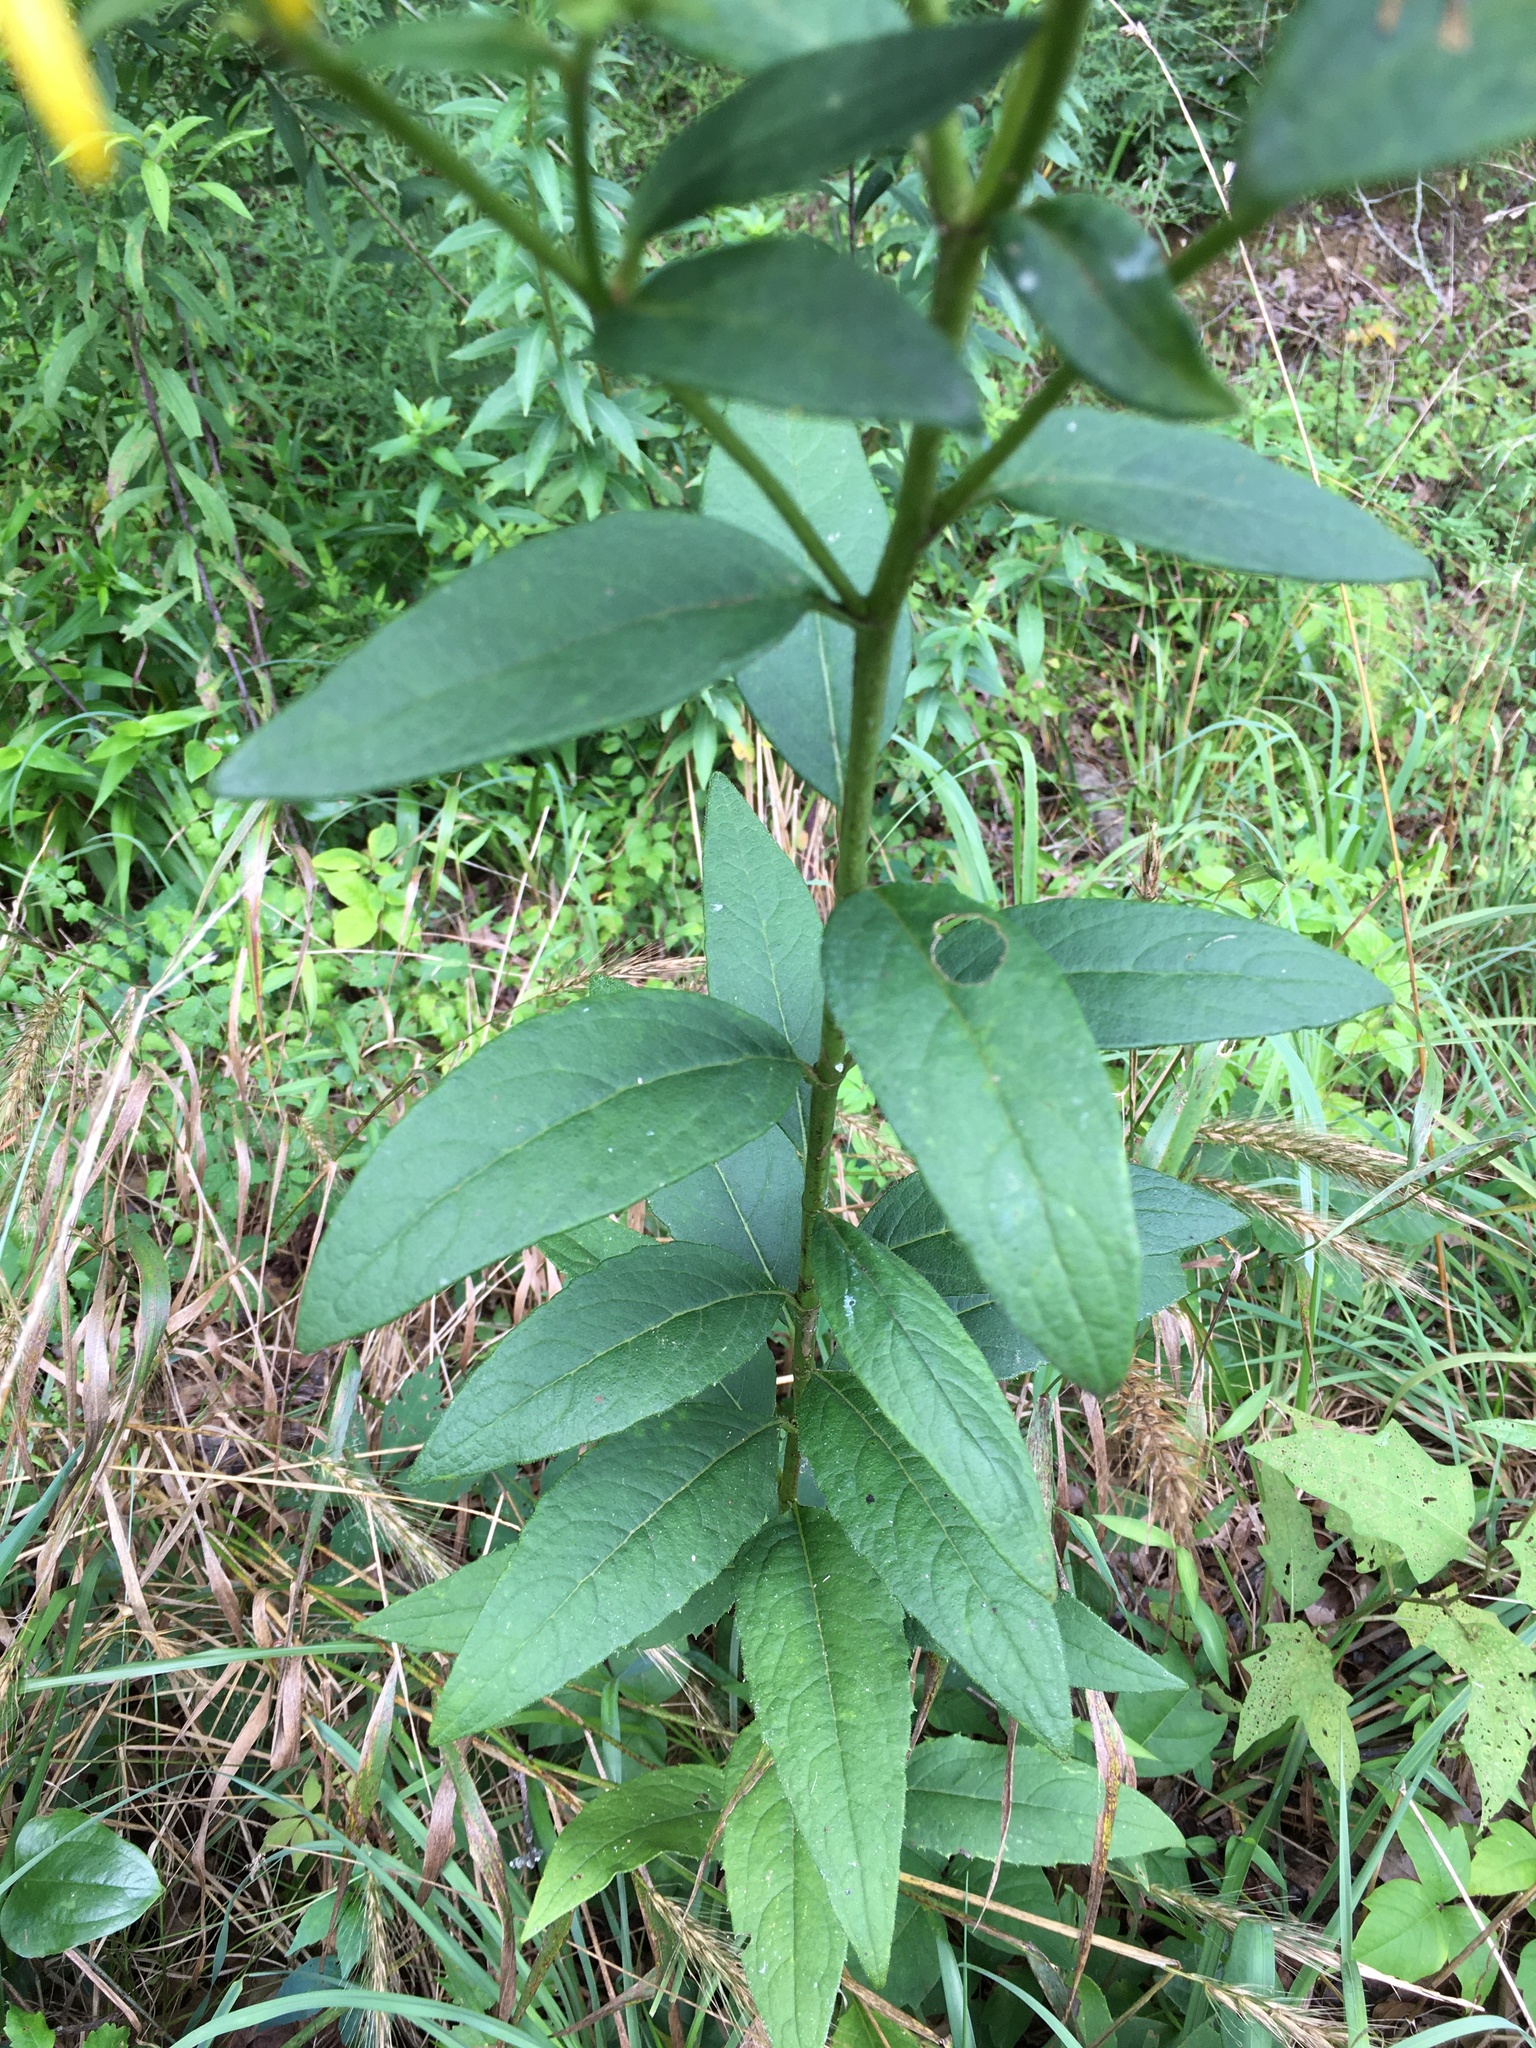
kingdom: Plantae
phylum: Tracheophyta
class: Magnoliopsida
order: Asterales
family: Asteraceae
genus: Silphium
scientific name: Silphium asteriscus
